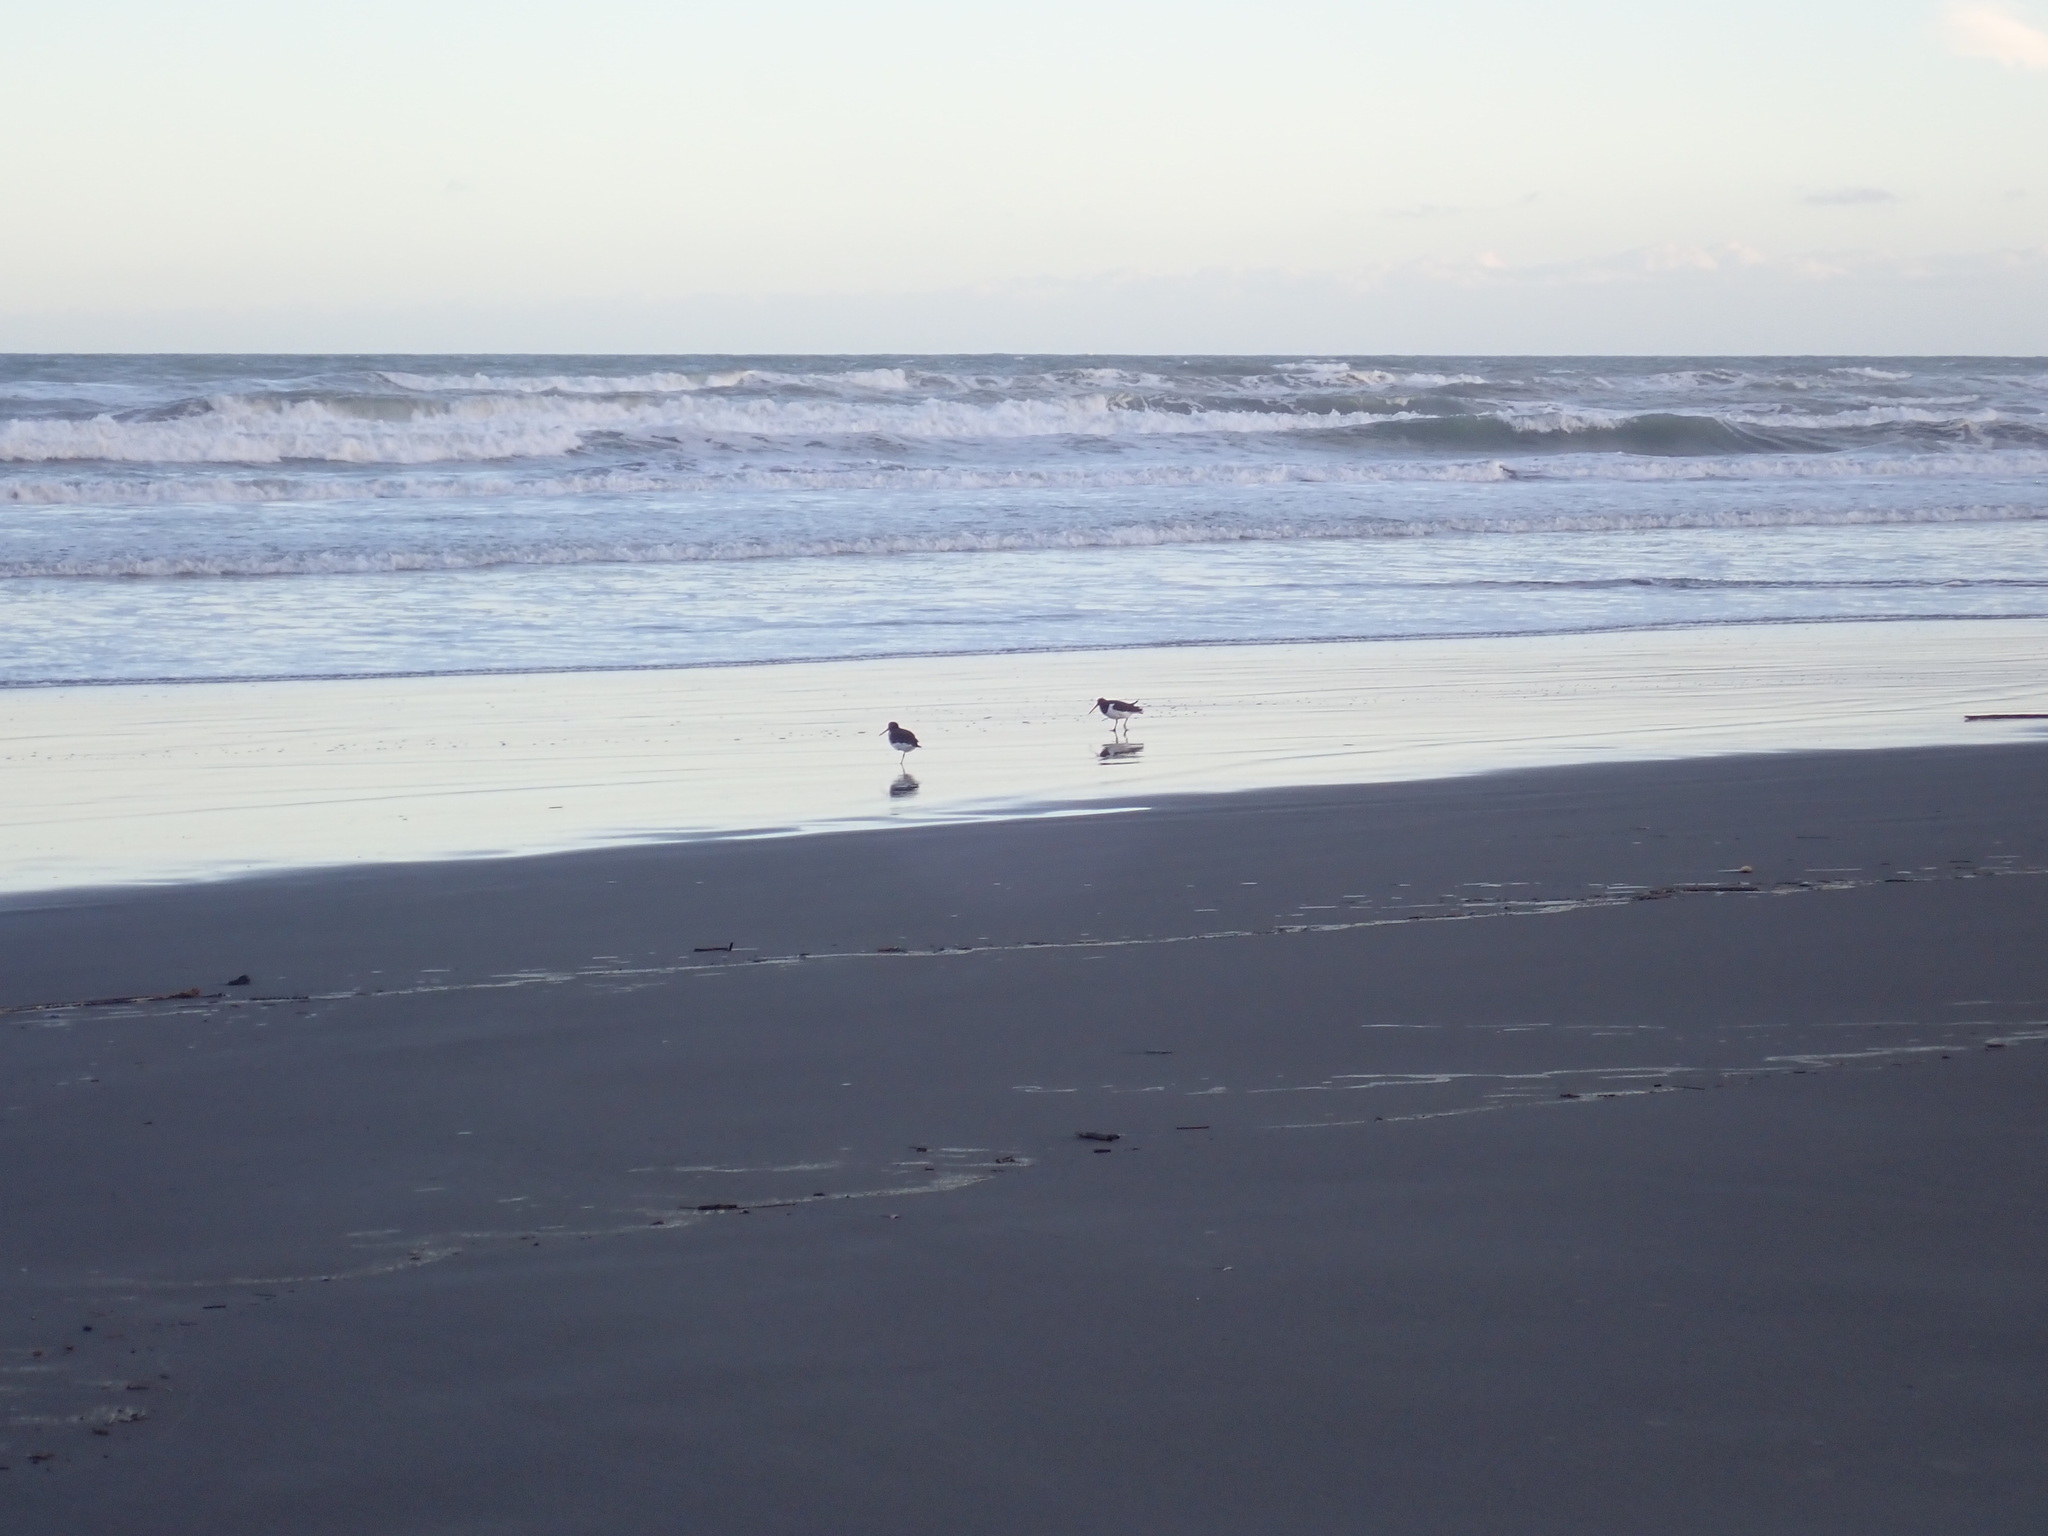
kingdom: Animalia
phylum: Chordata
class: Aves
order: Charadriiformes
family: Haematopodidae
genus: Haematopus
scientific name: Haematopus finschi
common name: South island oystercatcher
